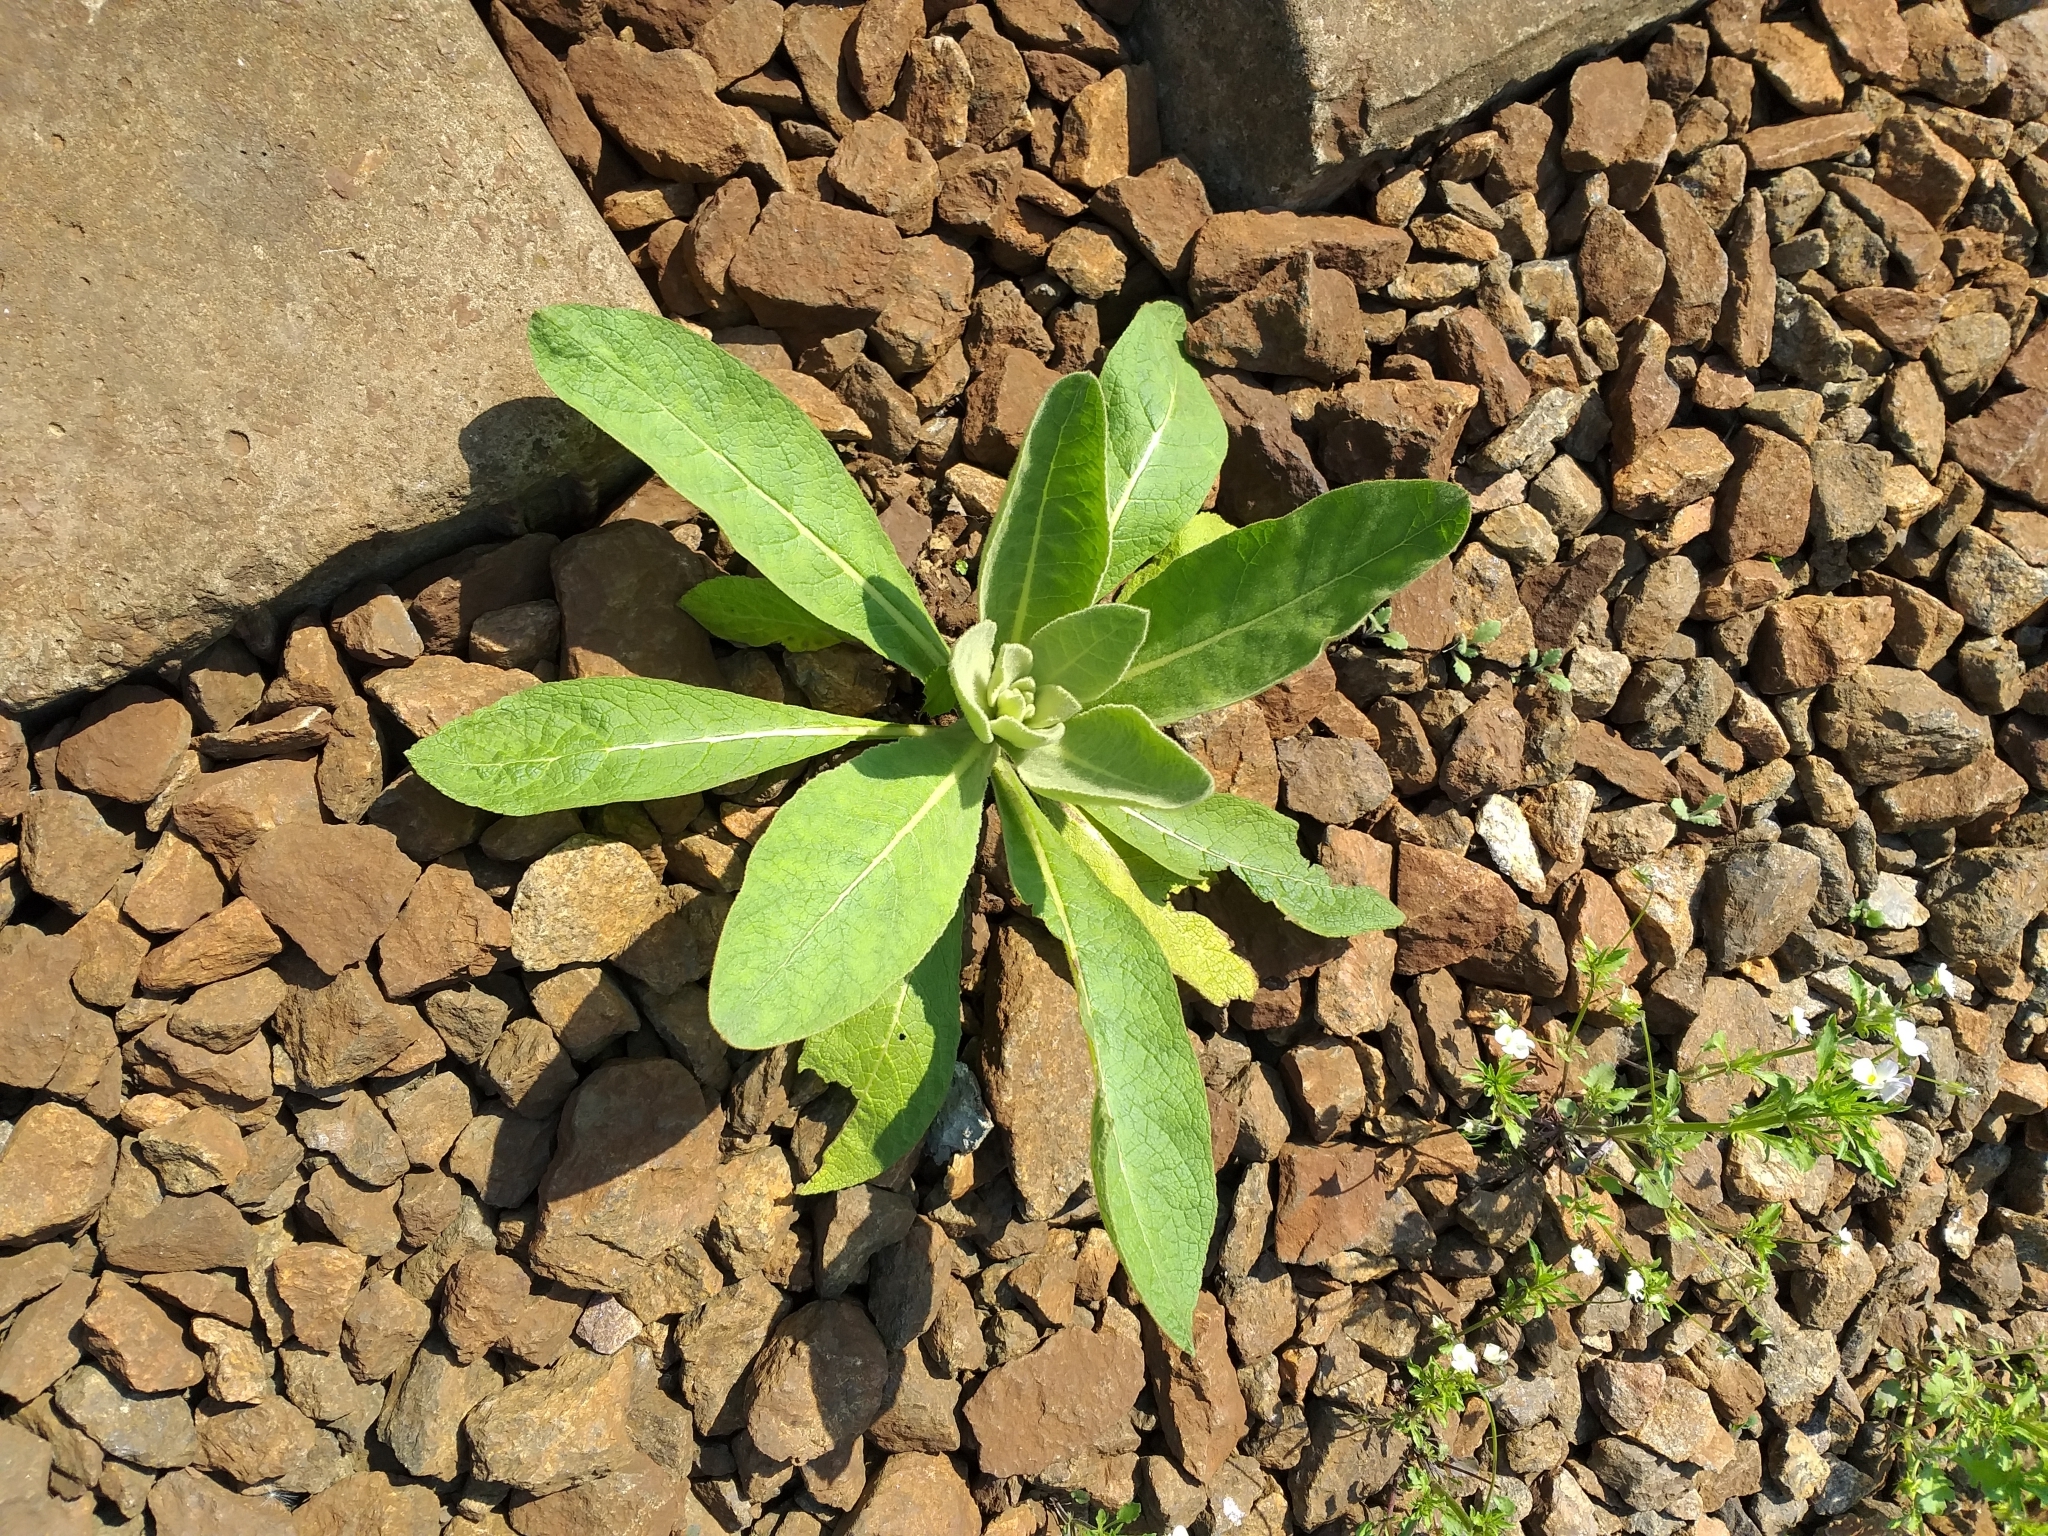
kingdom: Plantae
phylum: Tracheophyta
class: Magnoliopsida
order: Lamiales
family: Scrophulariaceae
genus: Verbascum
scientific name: Verbascum thapsus
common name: Common mullein
